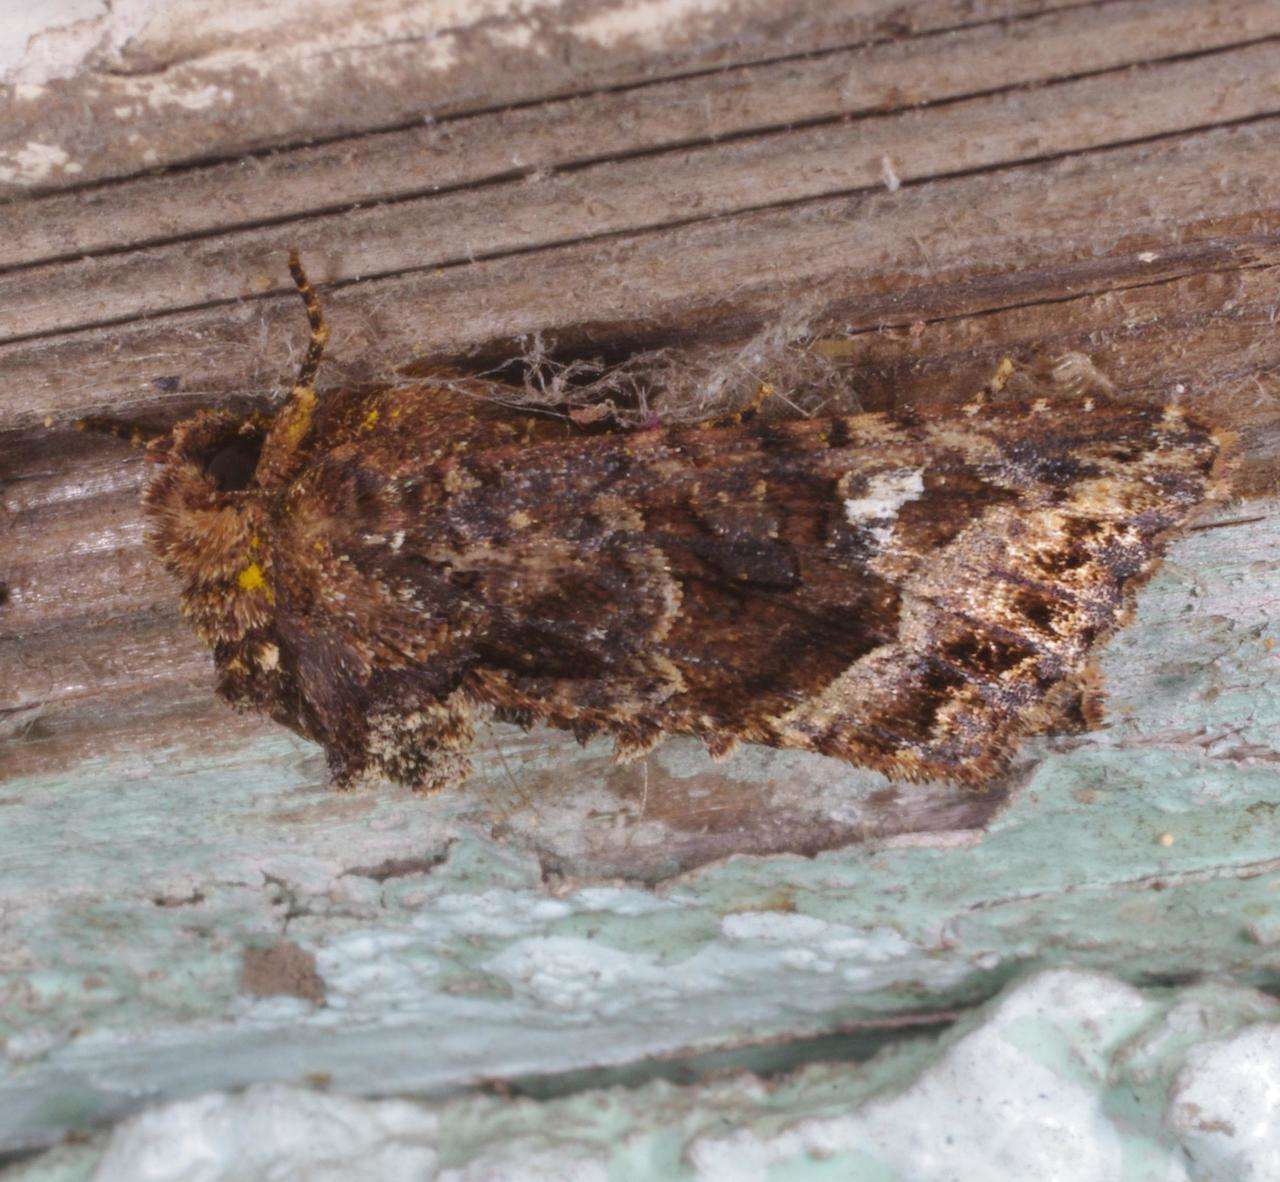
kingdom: Animalia
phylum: Arthropoda
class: Insecta
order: Lepidoptera
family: Noctuidae
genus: Neumichtis
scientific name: Neumichtis saliaris
